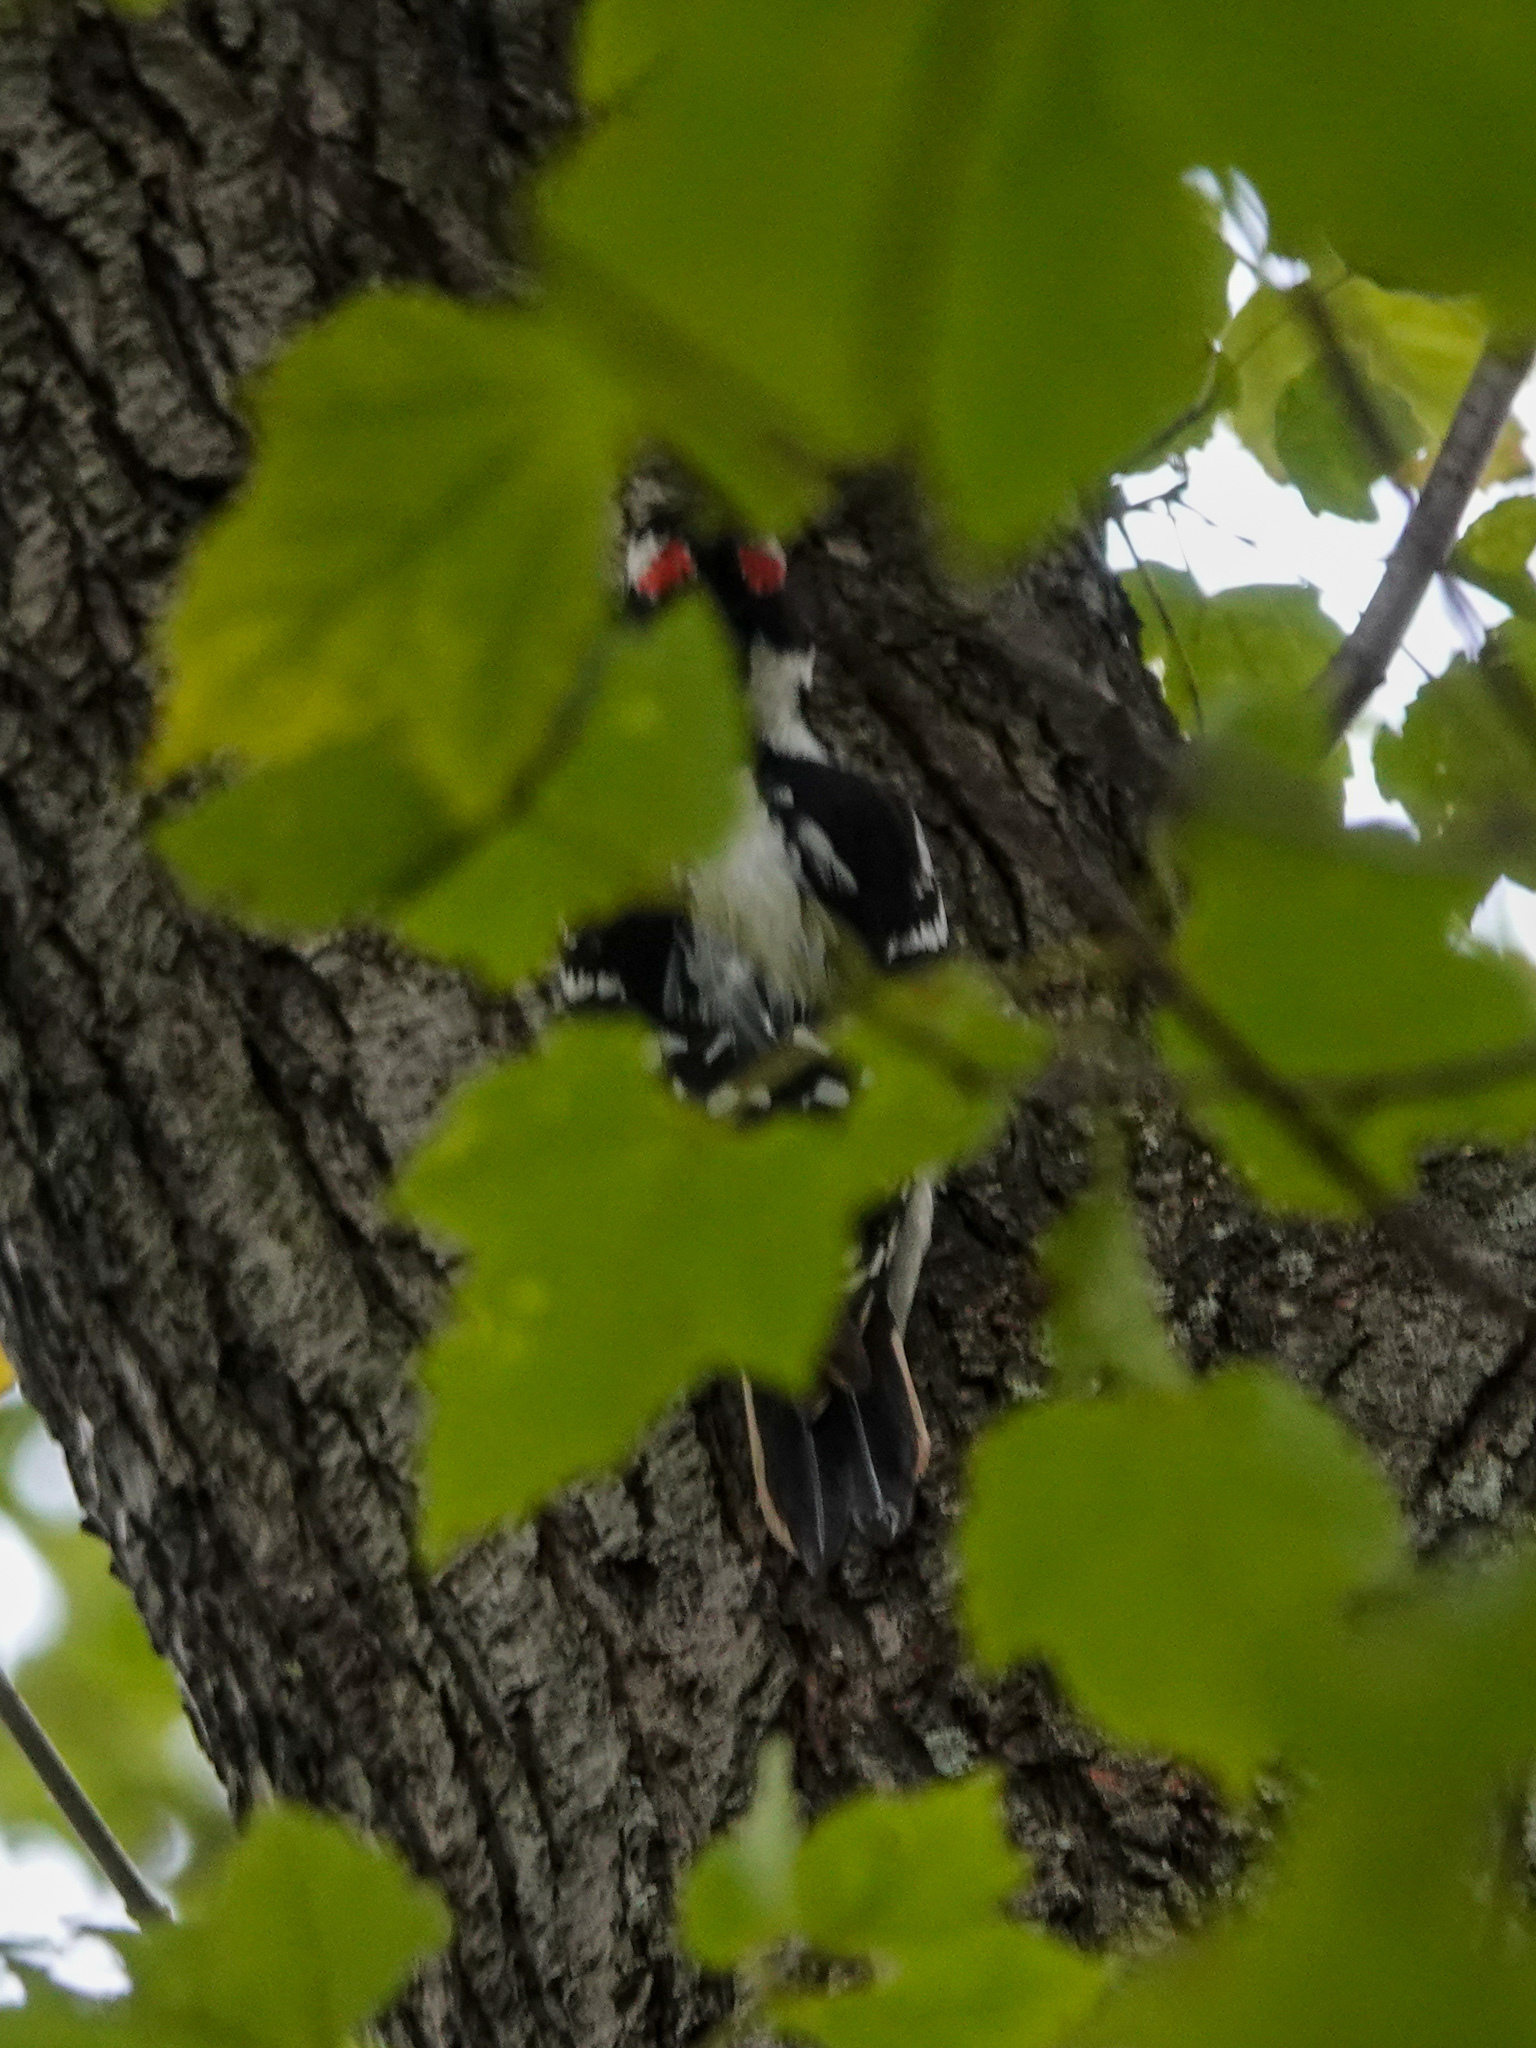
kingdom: Animalia
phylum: Chordata
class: Aves
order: Piciformes
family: Picidae
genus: Leuconotopicus
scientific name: Leuconotopicus villosus
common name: Hairy woodpecker
